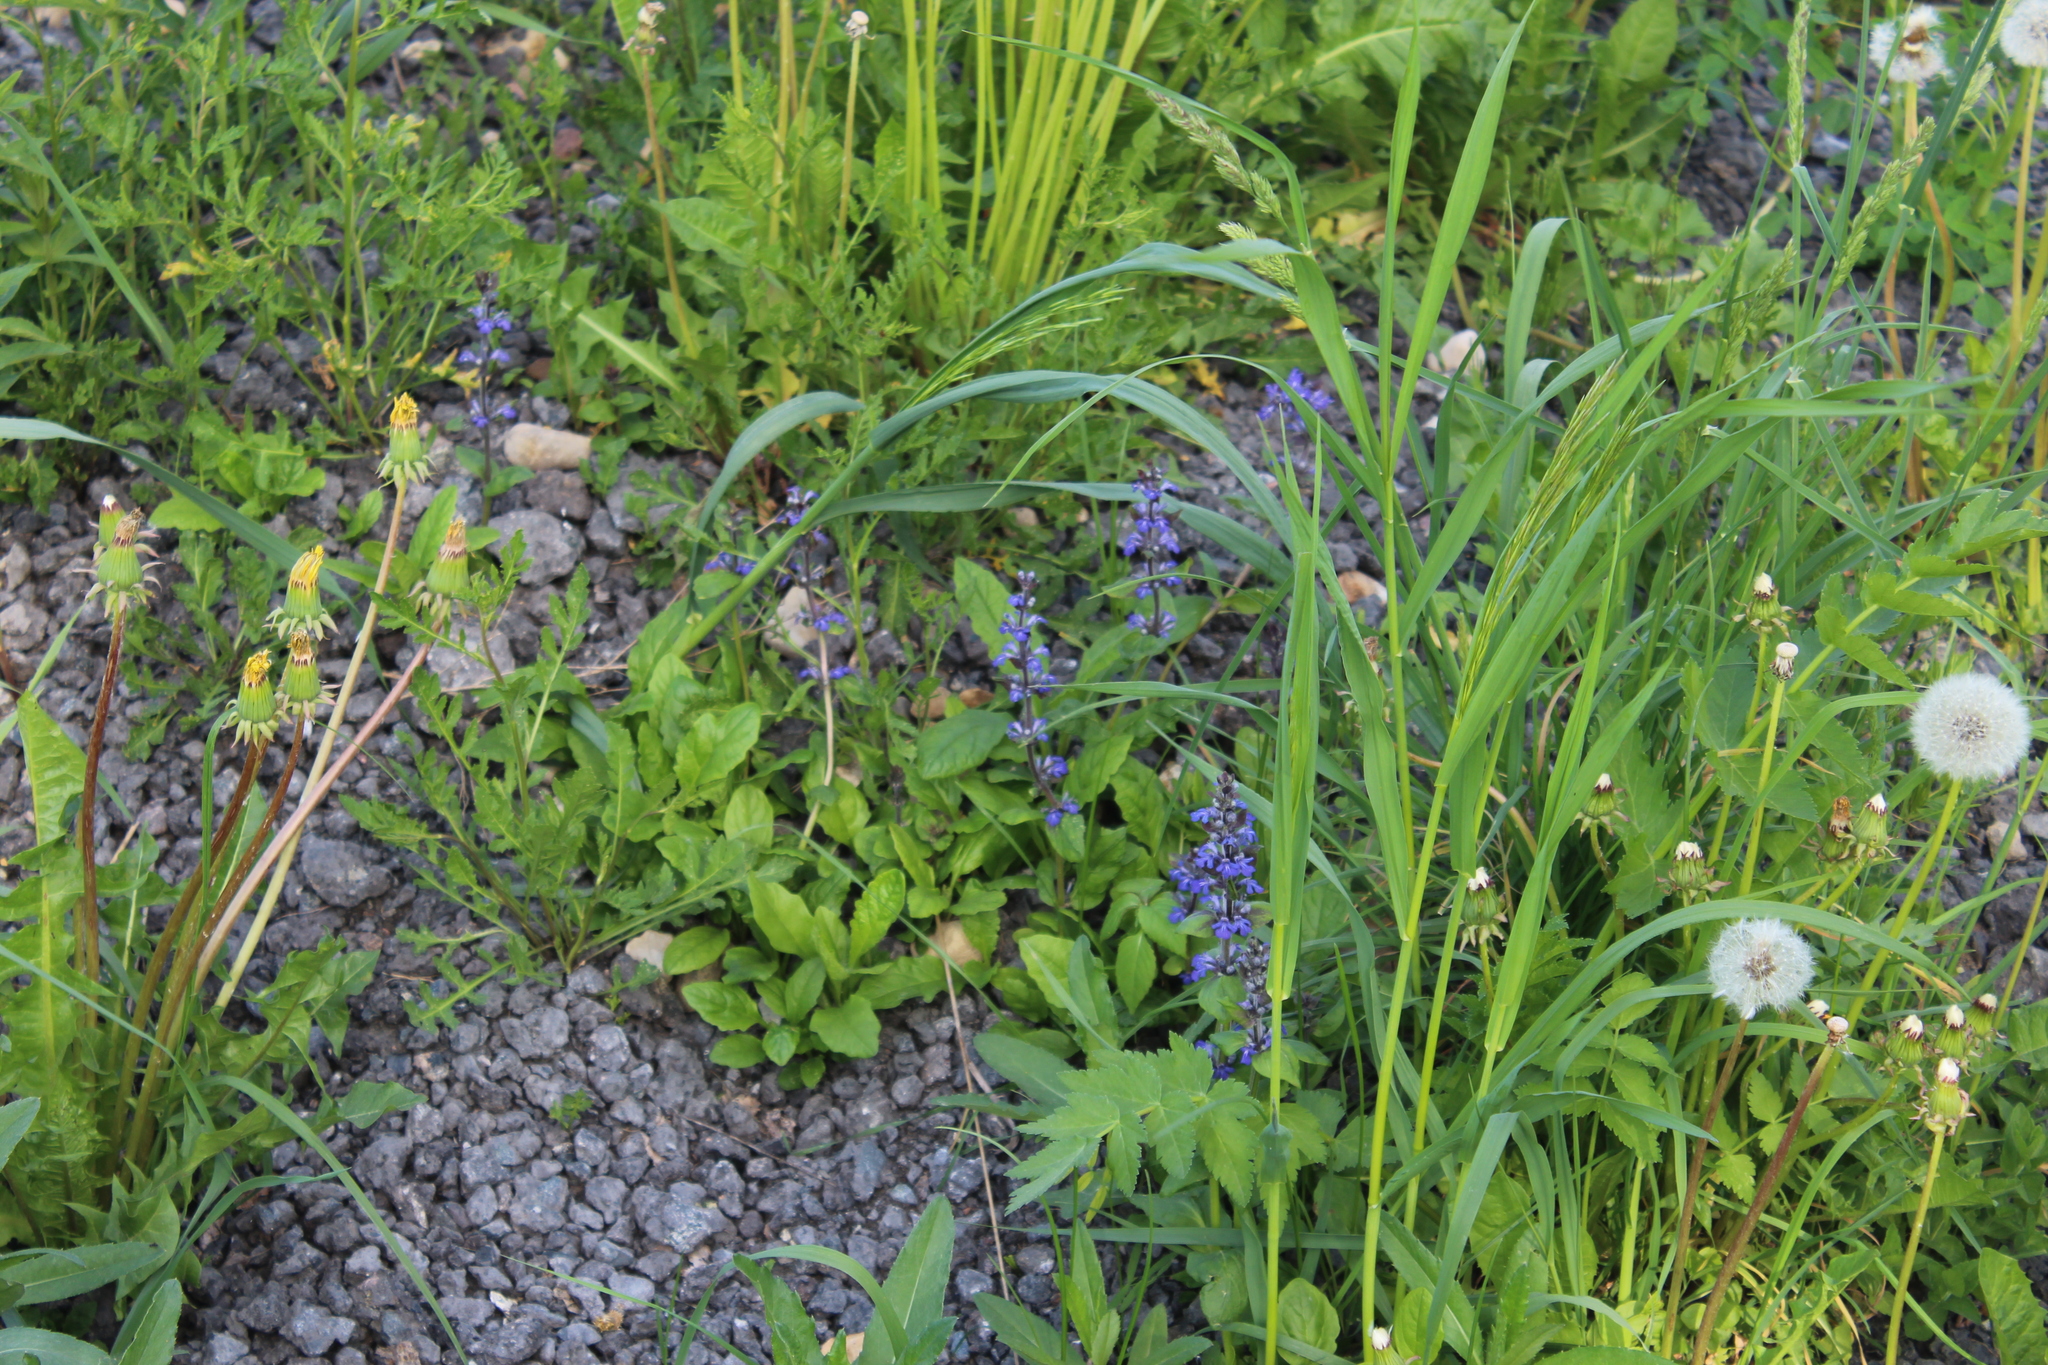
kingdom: Plantae
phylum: Tracheophyta
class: Magnoliopsida
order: Lamiales
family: Lamiaceae
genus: Ajuga
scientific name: Ajuga reptans
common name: Bugle
